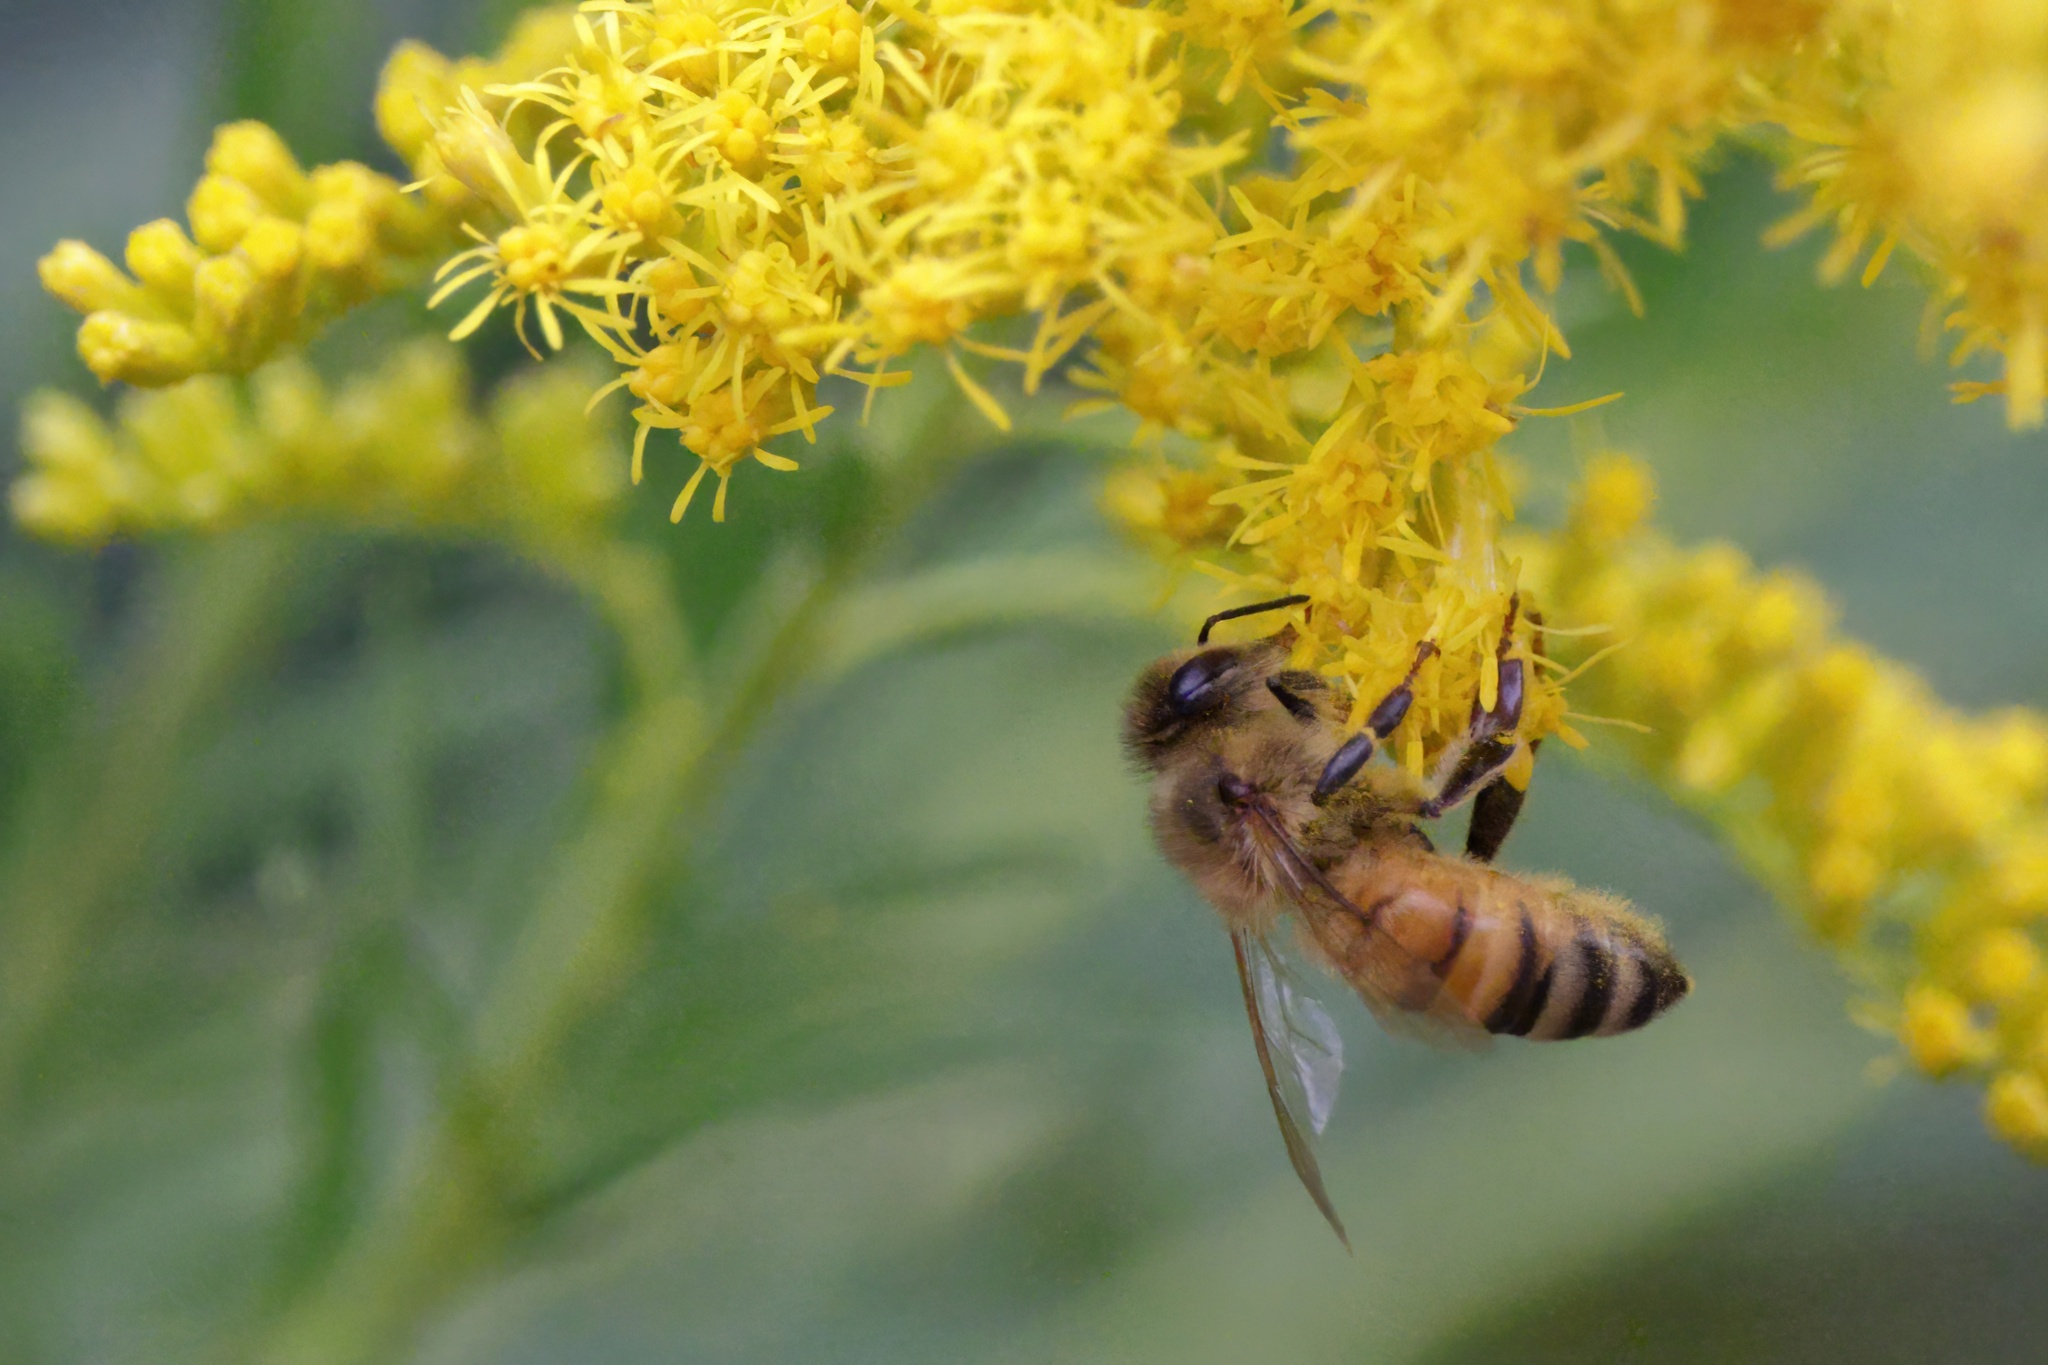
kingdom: Animalia
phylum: Arthropoda
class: Insecta
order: Hymenoptera
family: Apidae
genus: Apis
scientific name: Apis mellifera
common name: Honey bee
